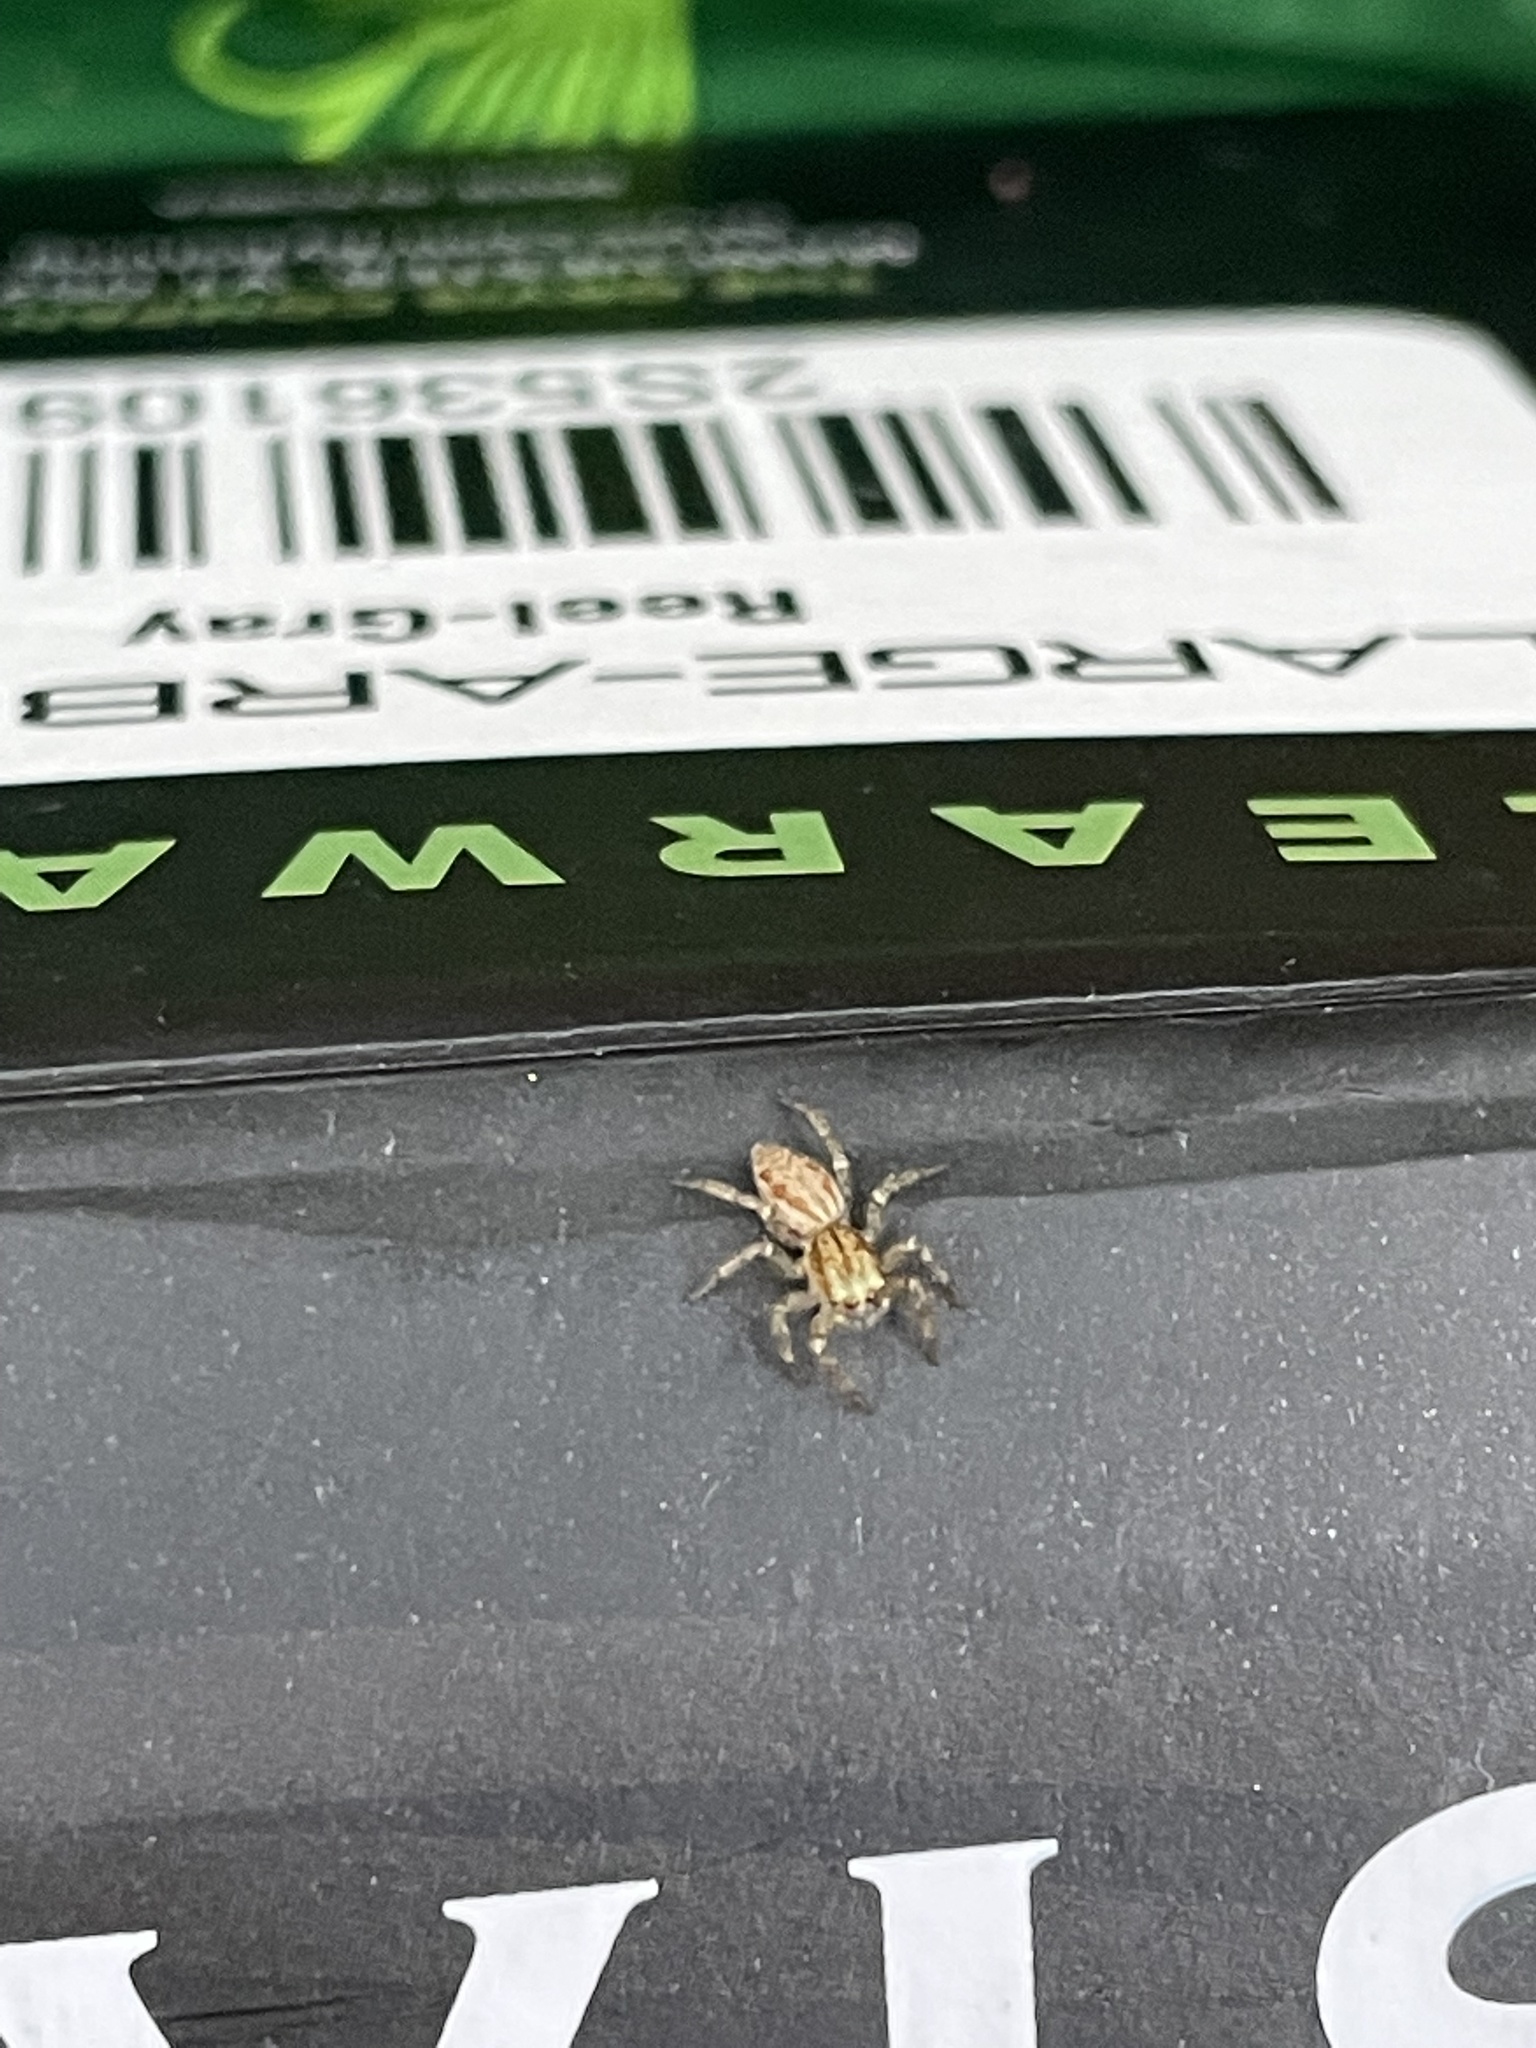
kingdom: Animalia
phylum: Arthropoda
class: Arachnida
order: Araneae
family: Salticidae
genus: Maevia
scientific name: Maevia inclemens
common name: Dimorphic jumper
